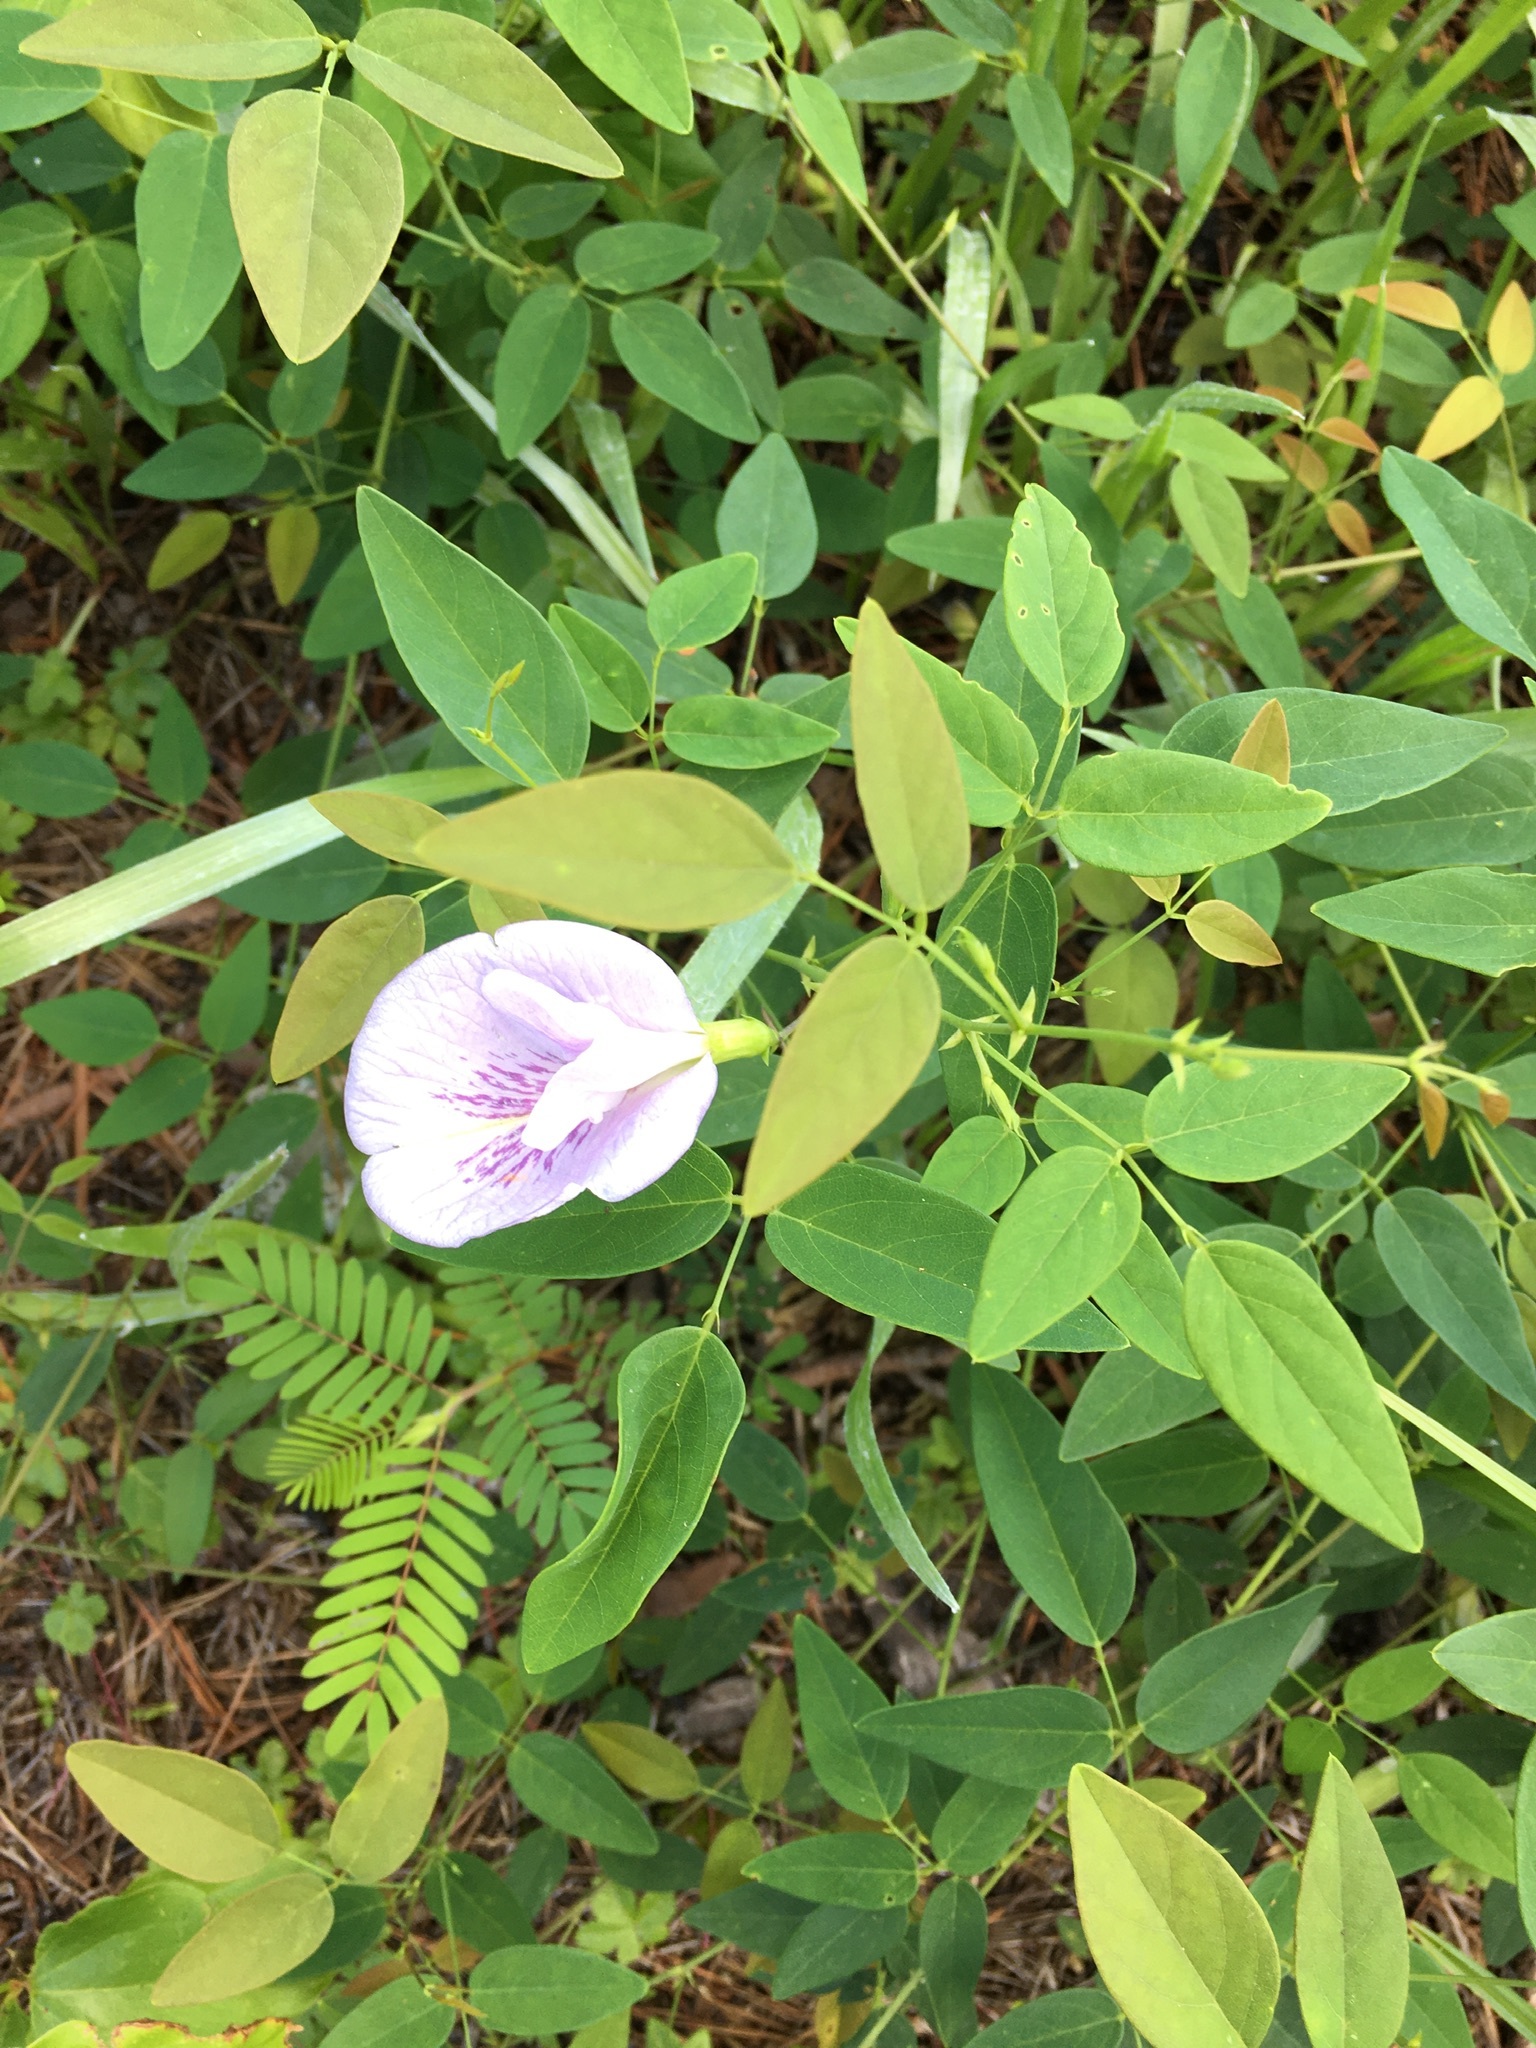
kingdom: Plantae
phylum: Tracheophyta
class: Magnoliopsida
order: Fabales
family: Fabaceae
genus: Clitoria
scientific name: Clitoria mariana
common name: Butterfly-pea
